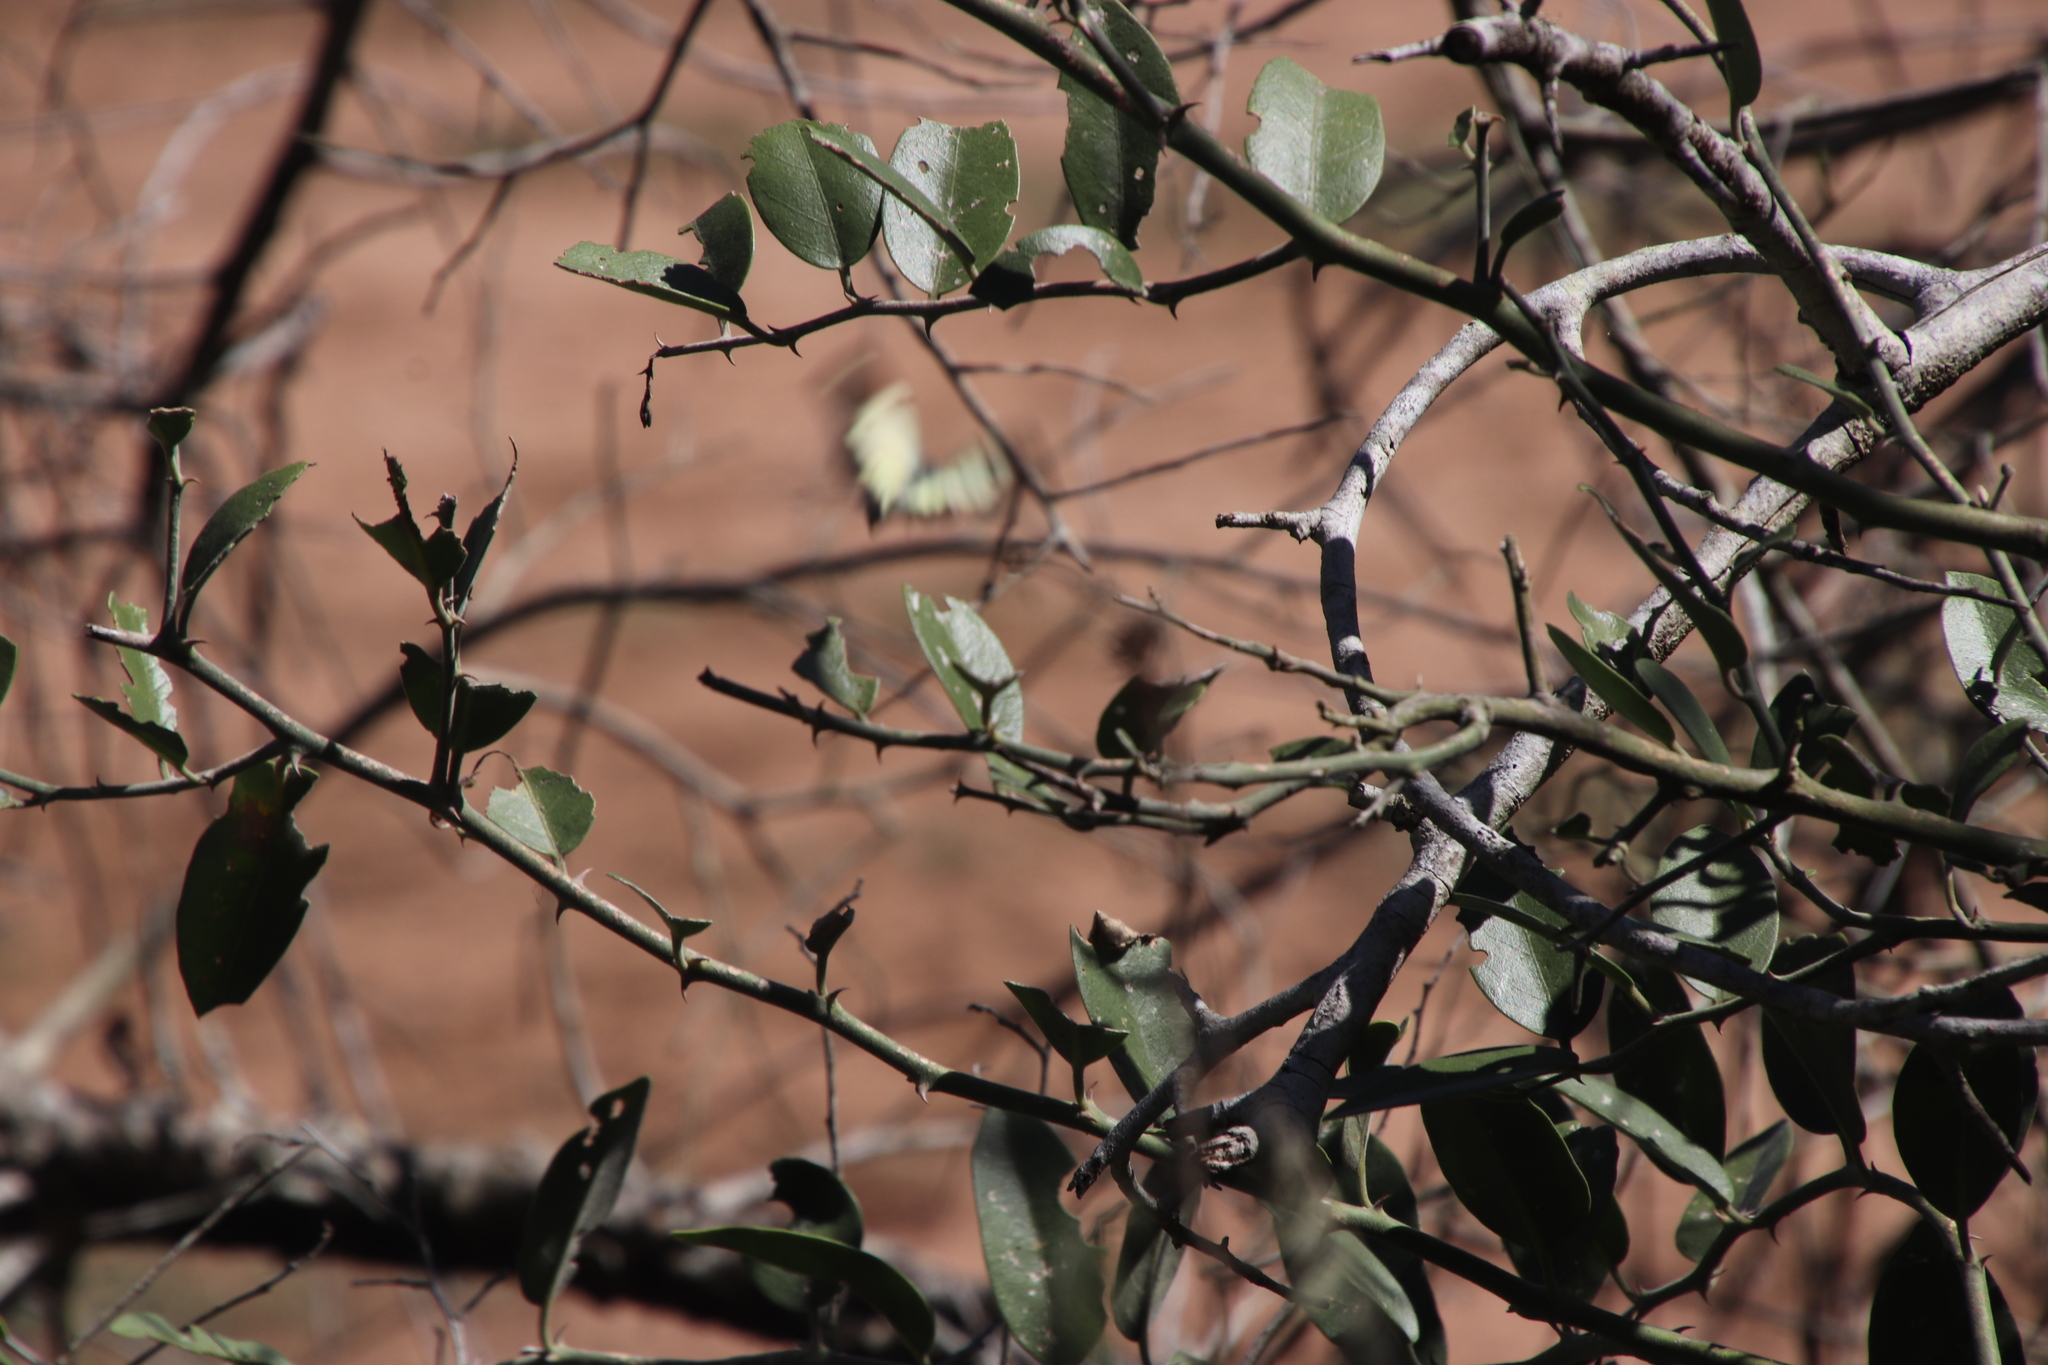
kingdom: Animalia
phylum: Arthropoda
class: Insecta
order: Lepidoptera
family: Pieridae
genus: Belenois
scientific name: Belenois creona
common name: African caper white
